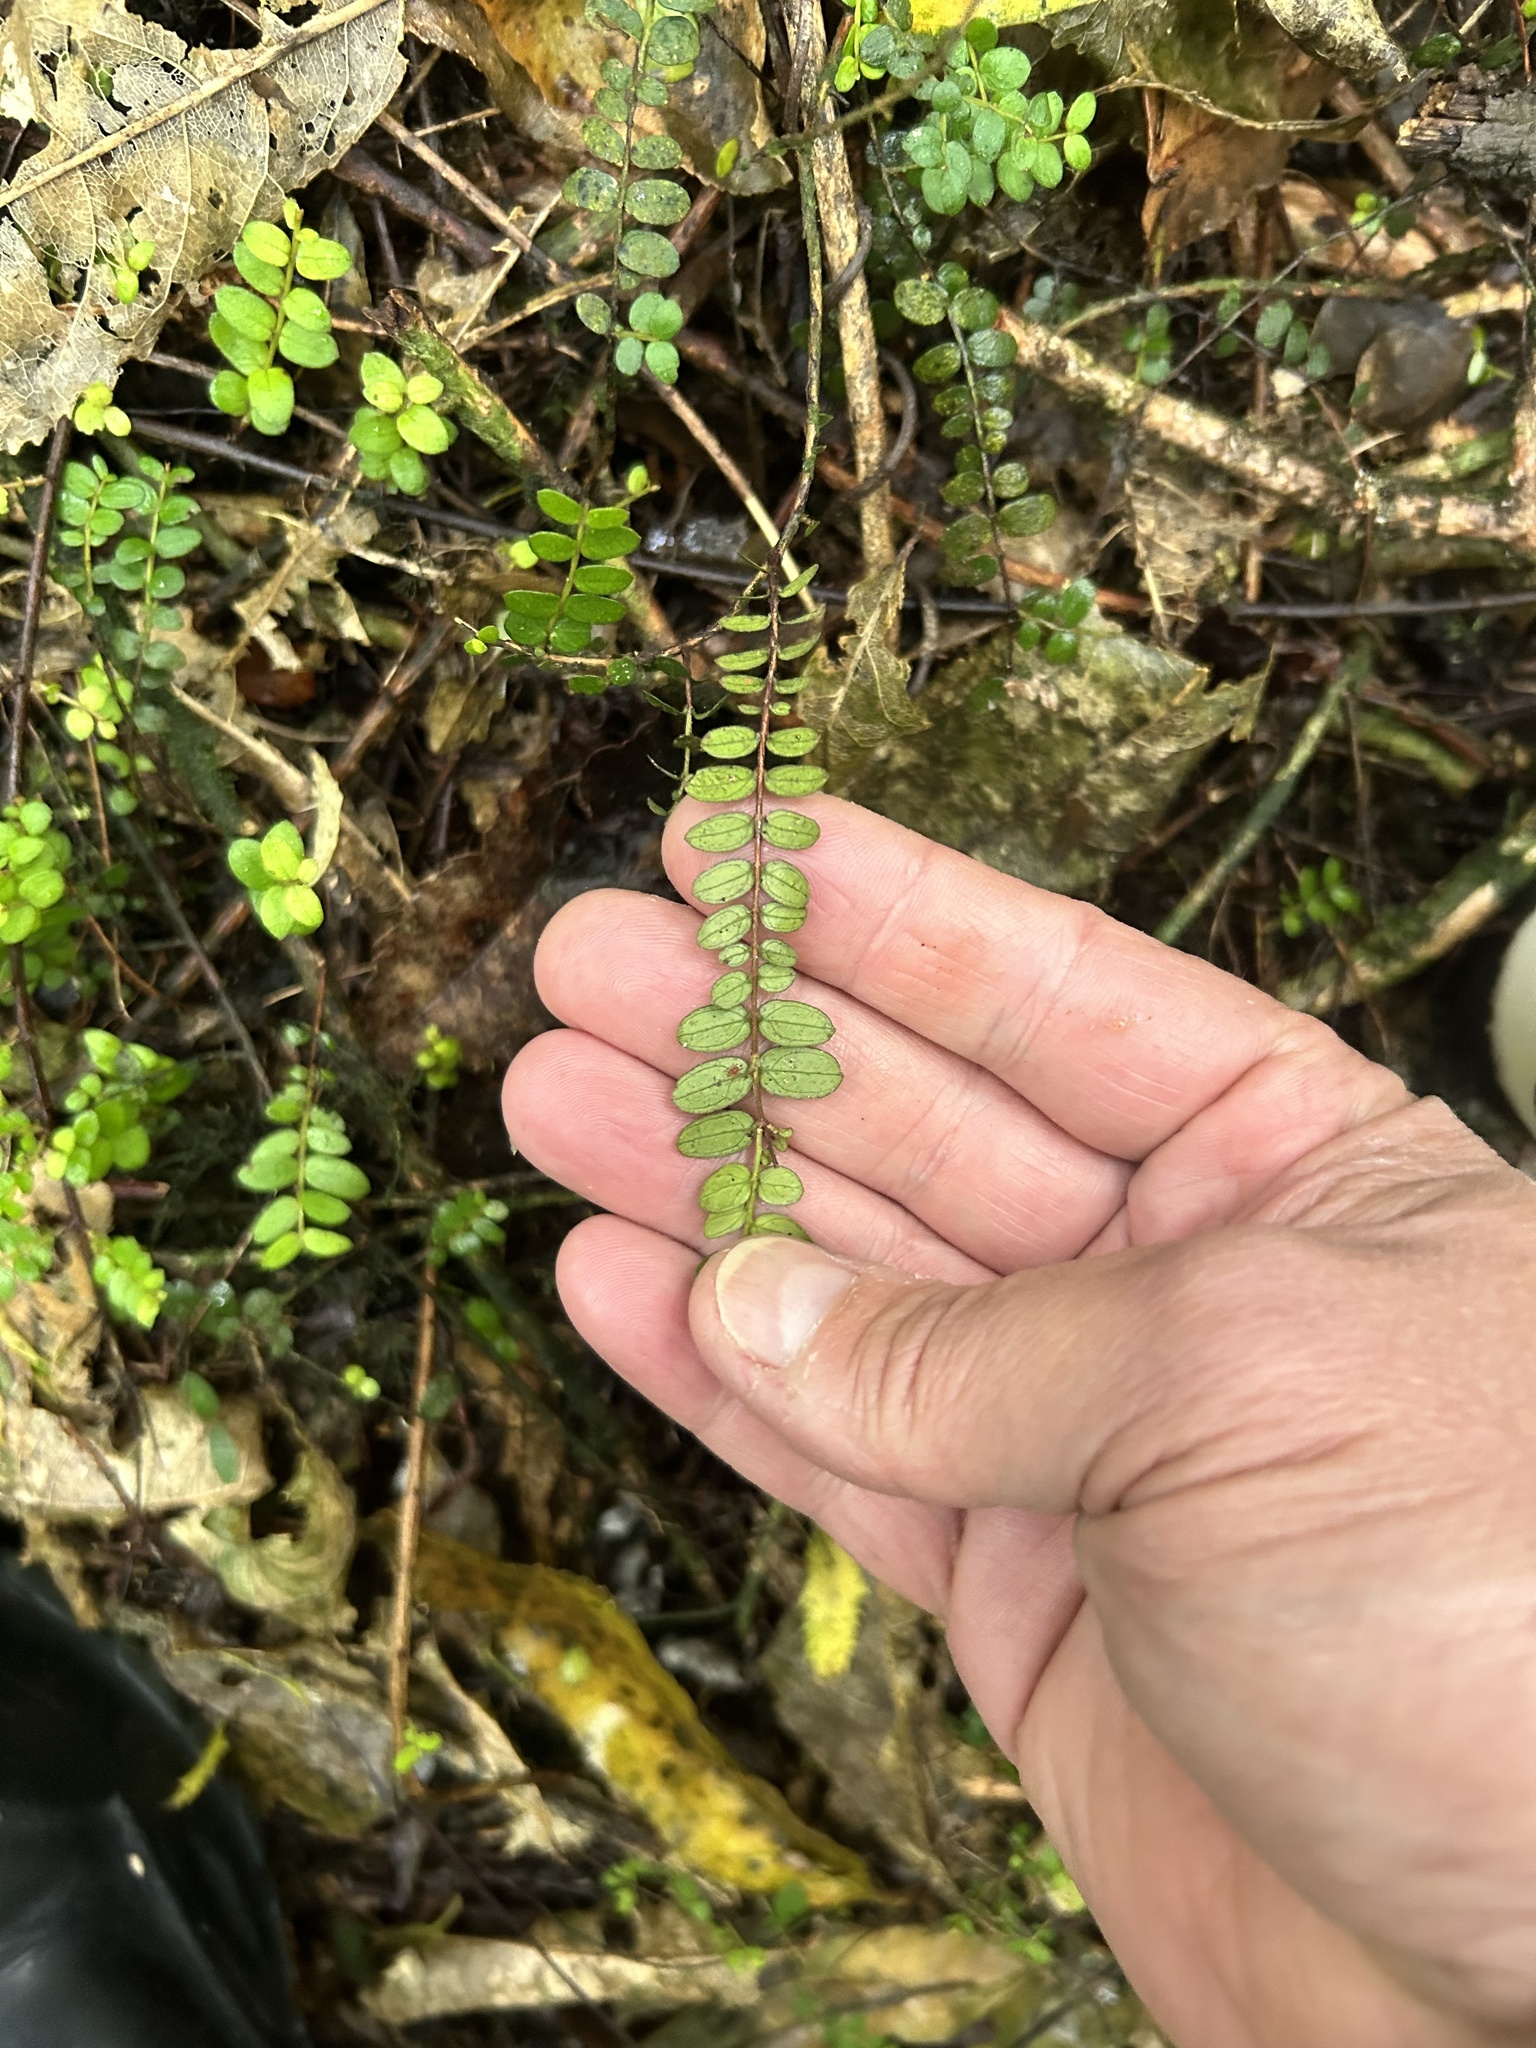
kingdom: Plantae
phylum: Tracheophyta
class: Magnoliopsida
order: Myrtales
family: Myrtaceae
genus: Metrosideros
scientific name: Metrosideros diffusa
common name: Small ratavine
